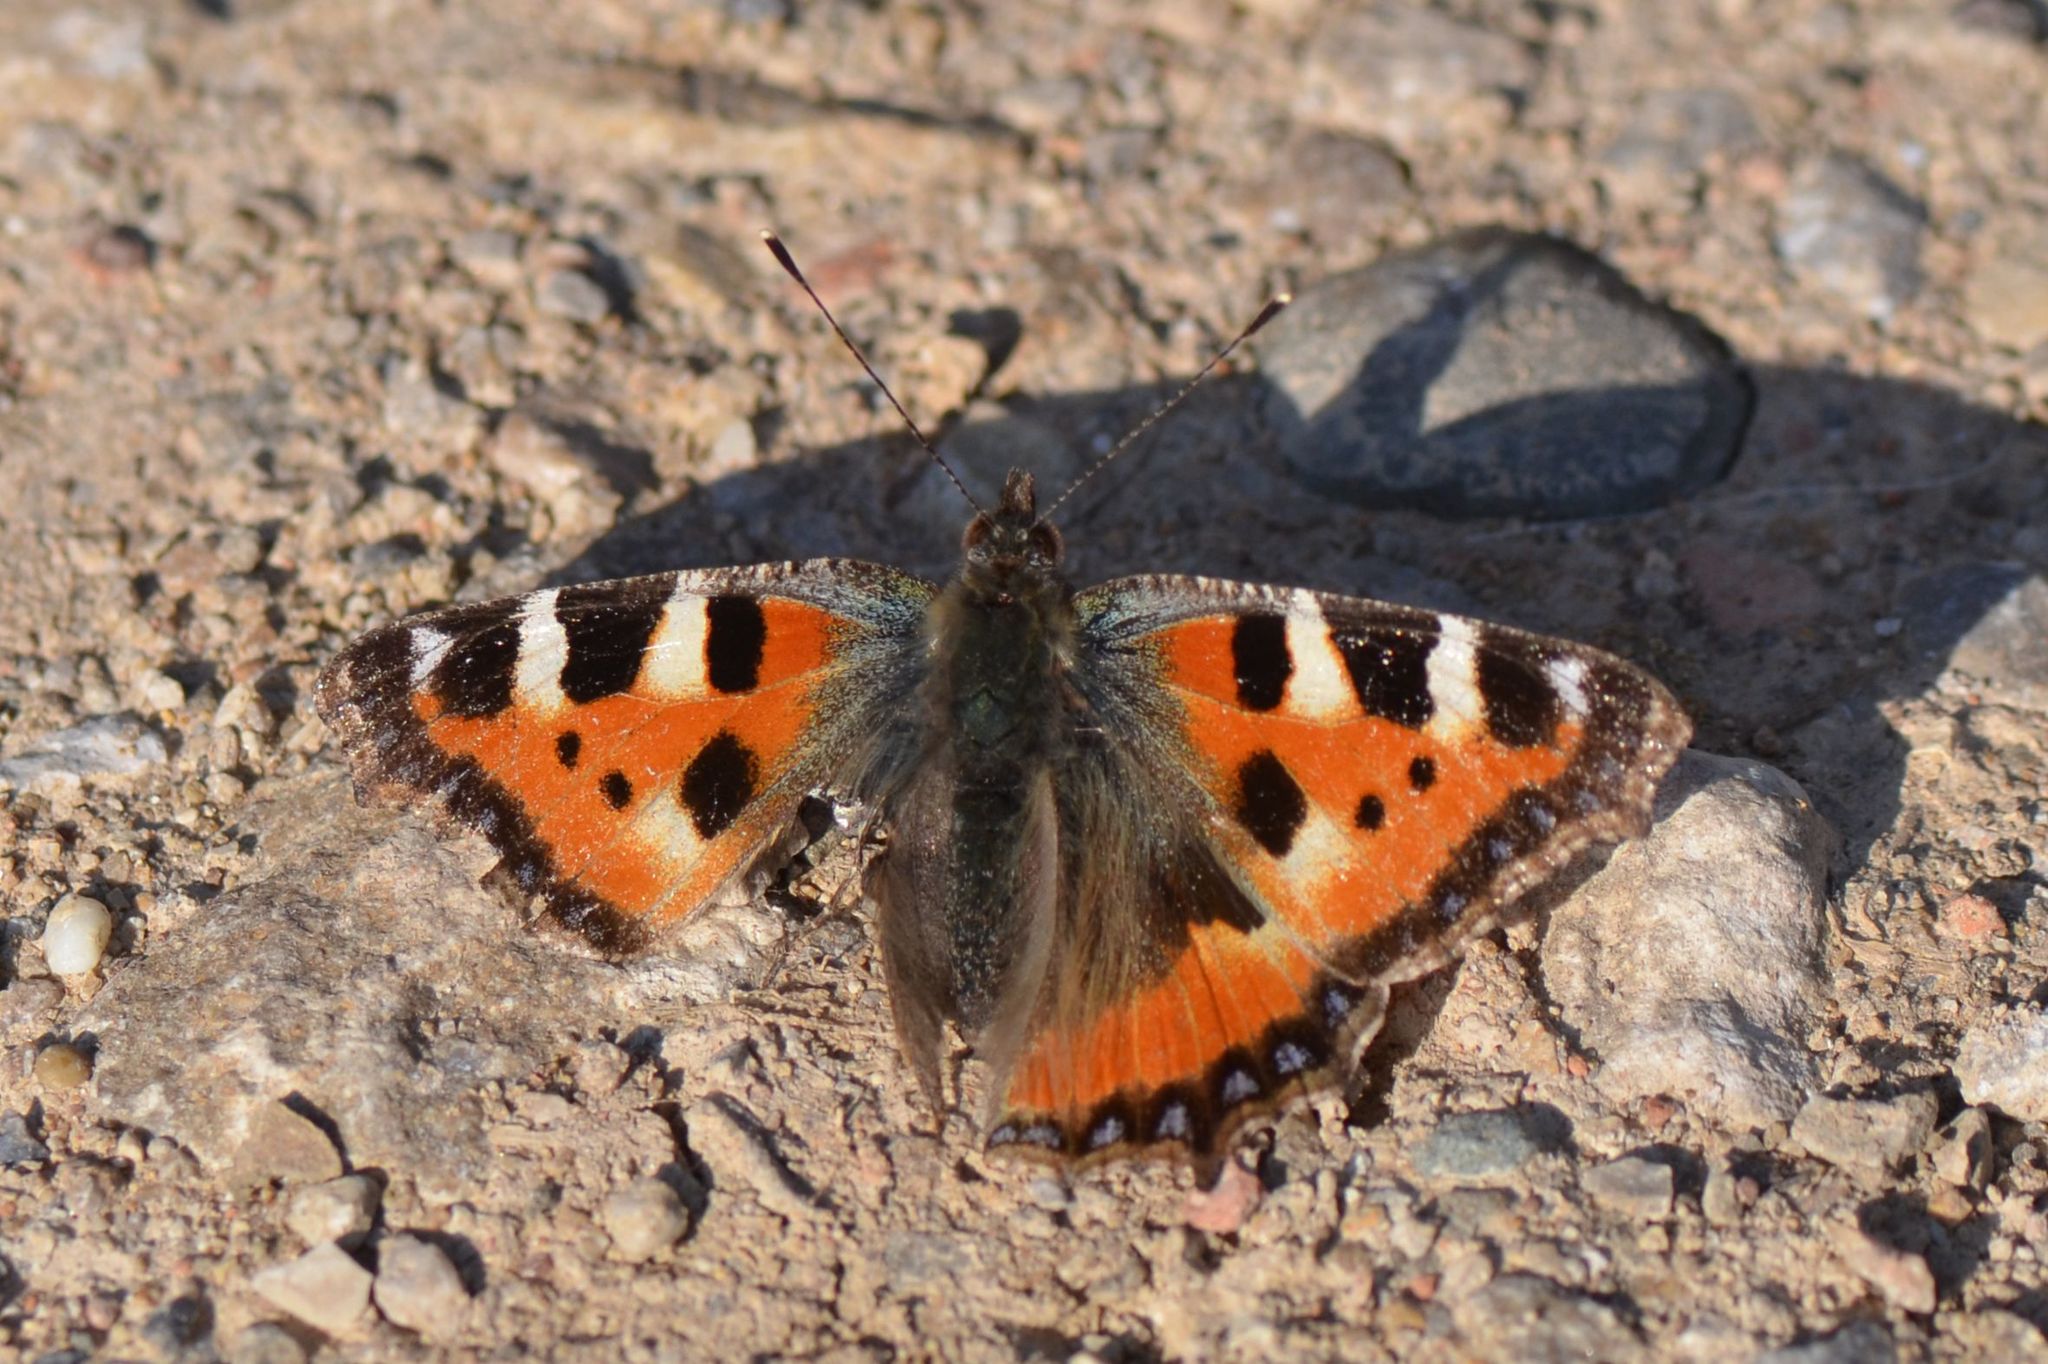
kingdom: Animalia
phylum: Arthropoda
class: Insecta
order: Lepidoptera
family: Nymphalidae
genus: Aglais
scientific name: Aglais urticae
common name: Small tortoiseshell
